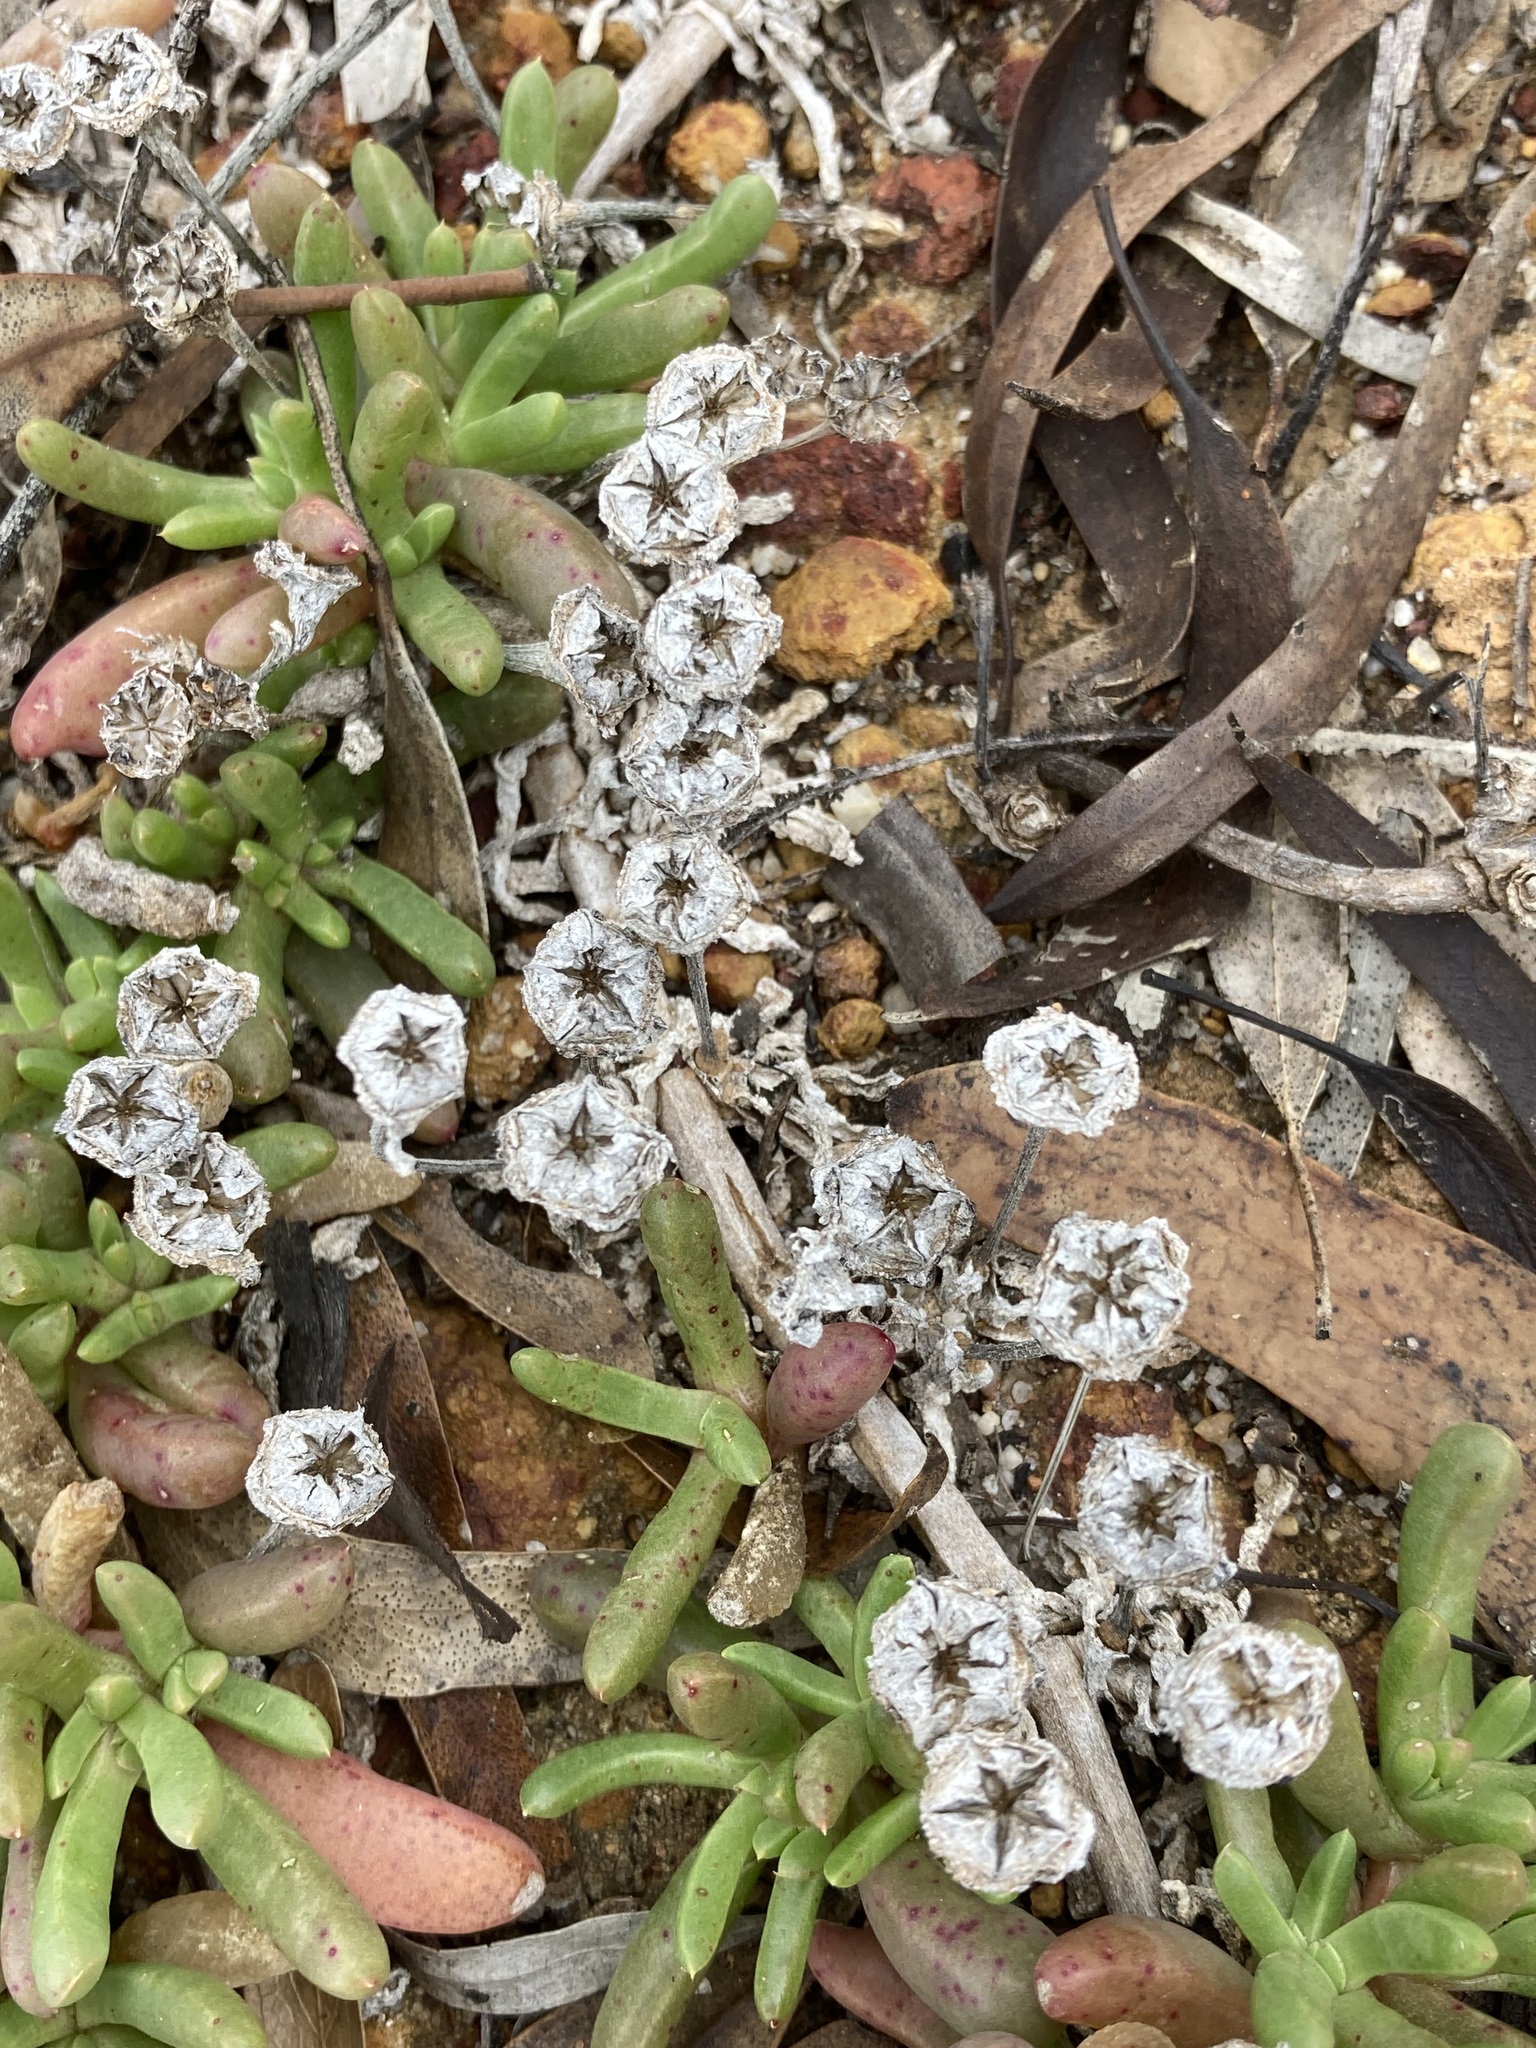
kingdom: Plantae
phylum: Tracheophyta
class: Magnoliopsida
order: Caryophyllales
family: Aizoaceae
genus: Disphyma
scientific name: Disphyma clavellatum
